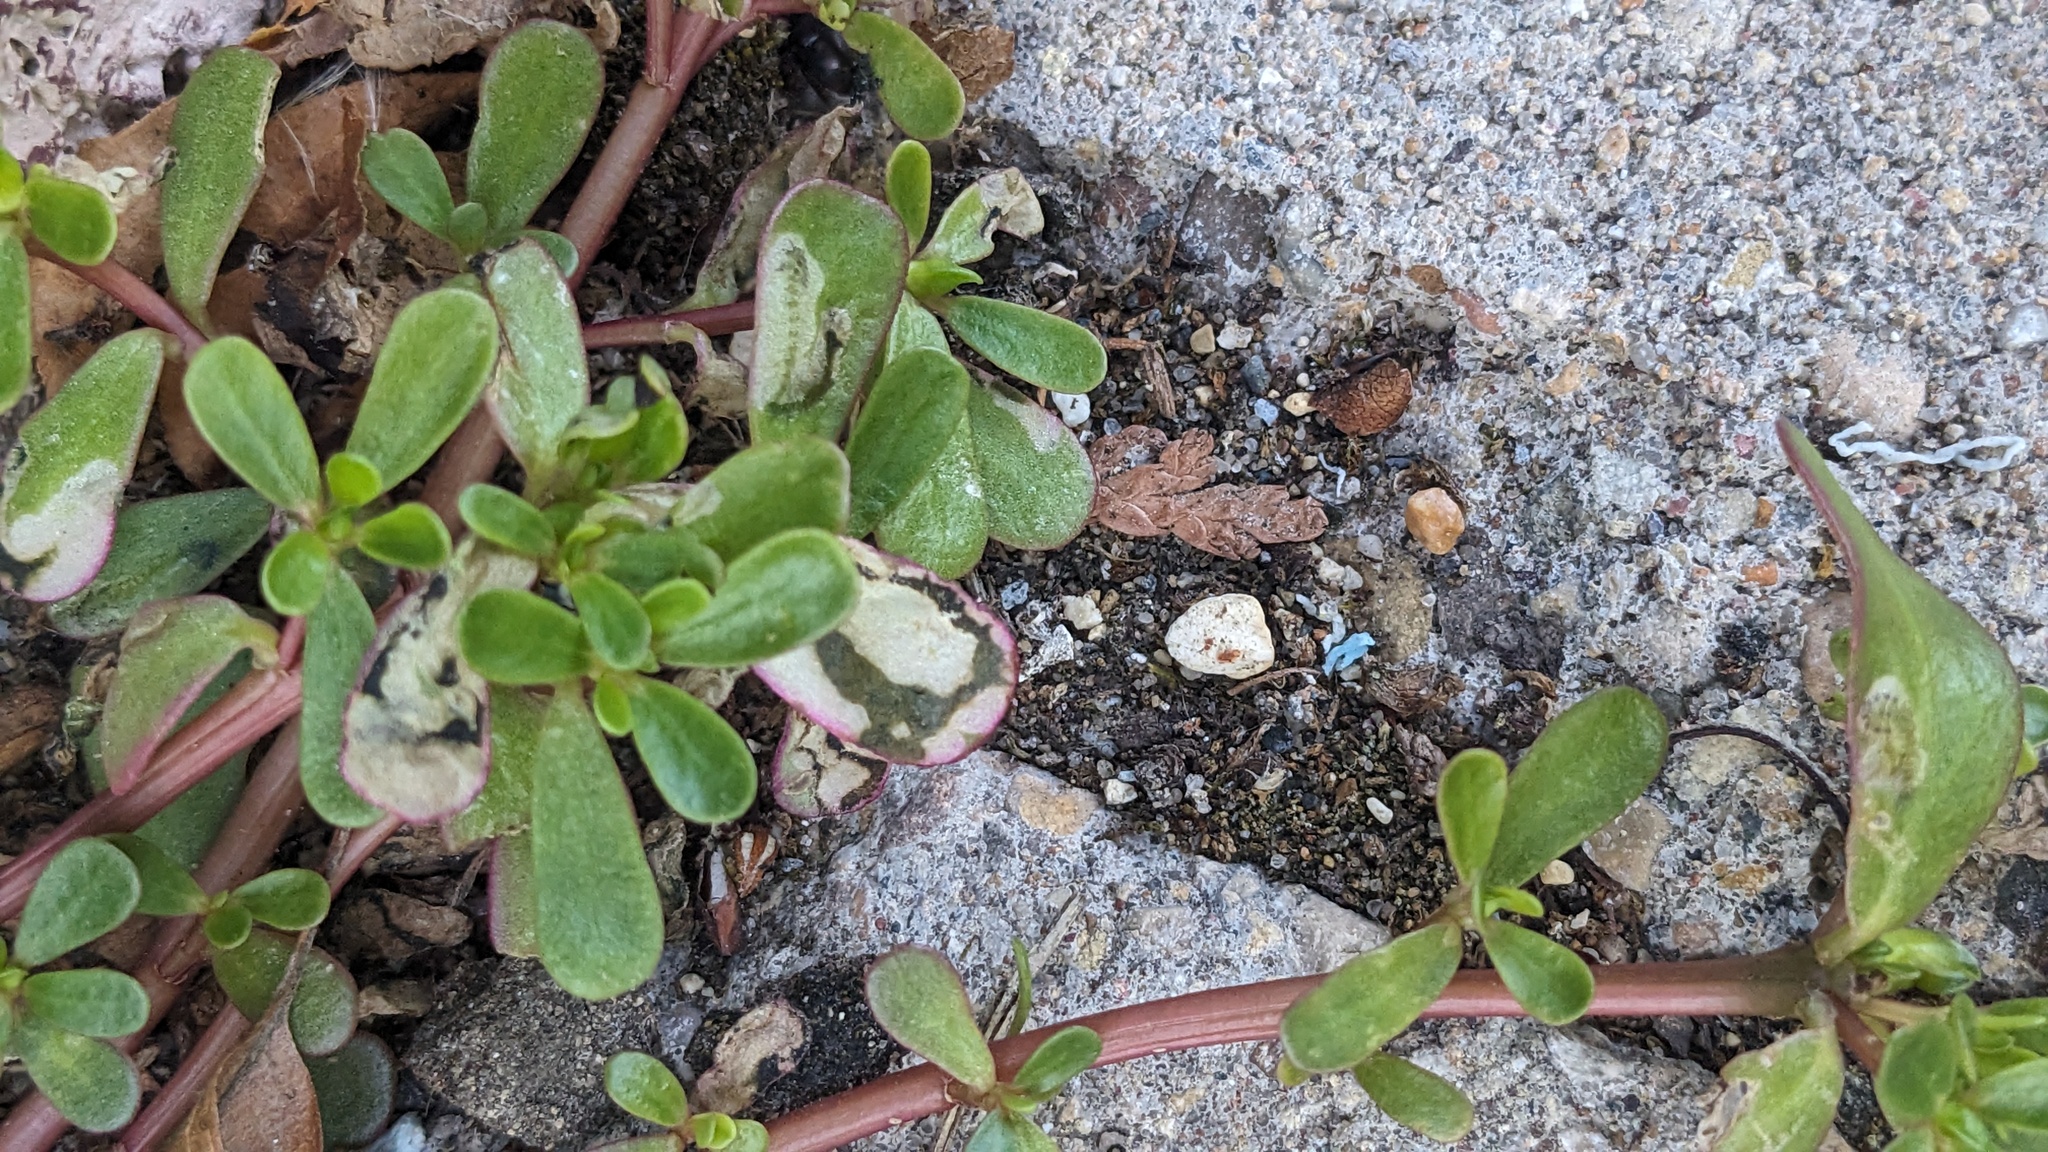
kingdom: Animalia
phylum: Arthropoda
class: Insecta
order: Hymenoptera
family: Argidae
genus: Schizocerella
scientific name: Schizocerella pilicornis
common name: Purslane sawfly
